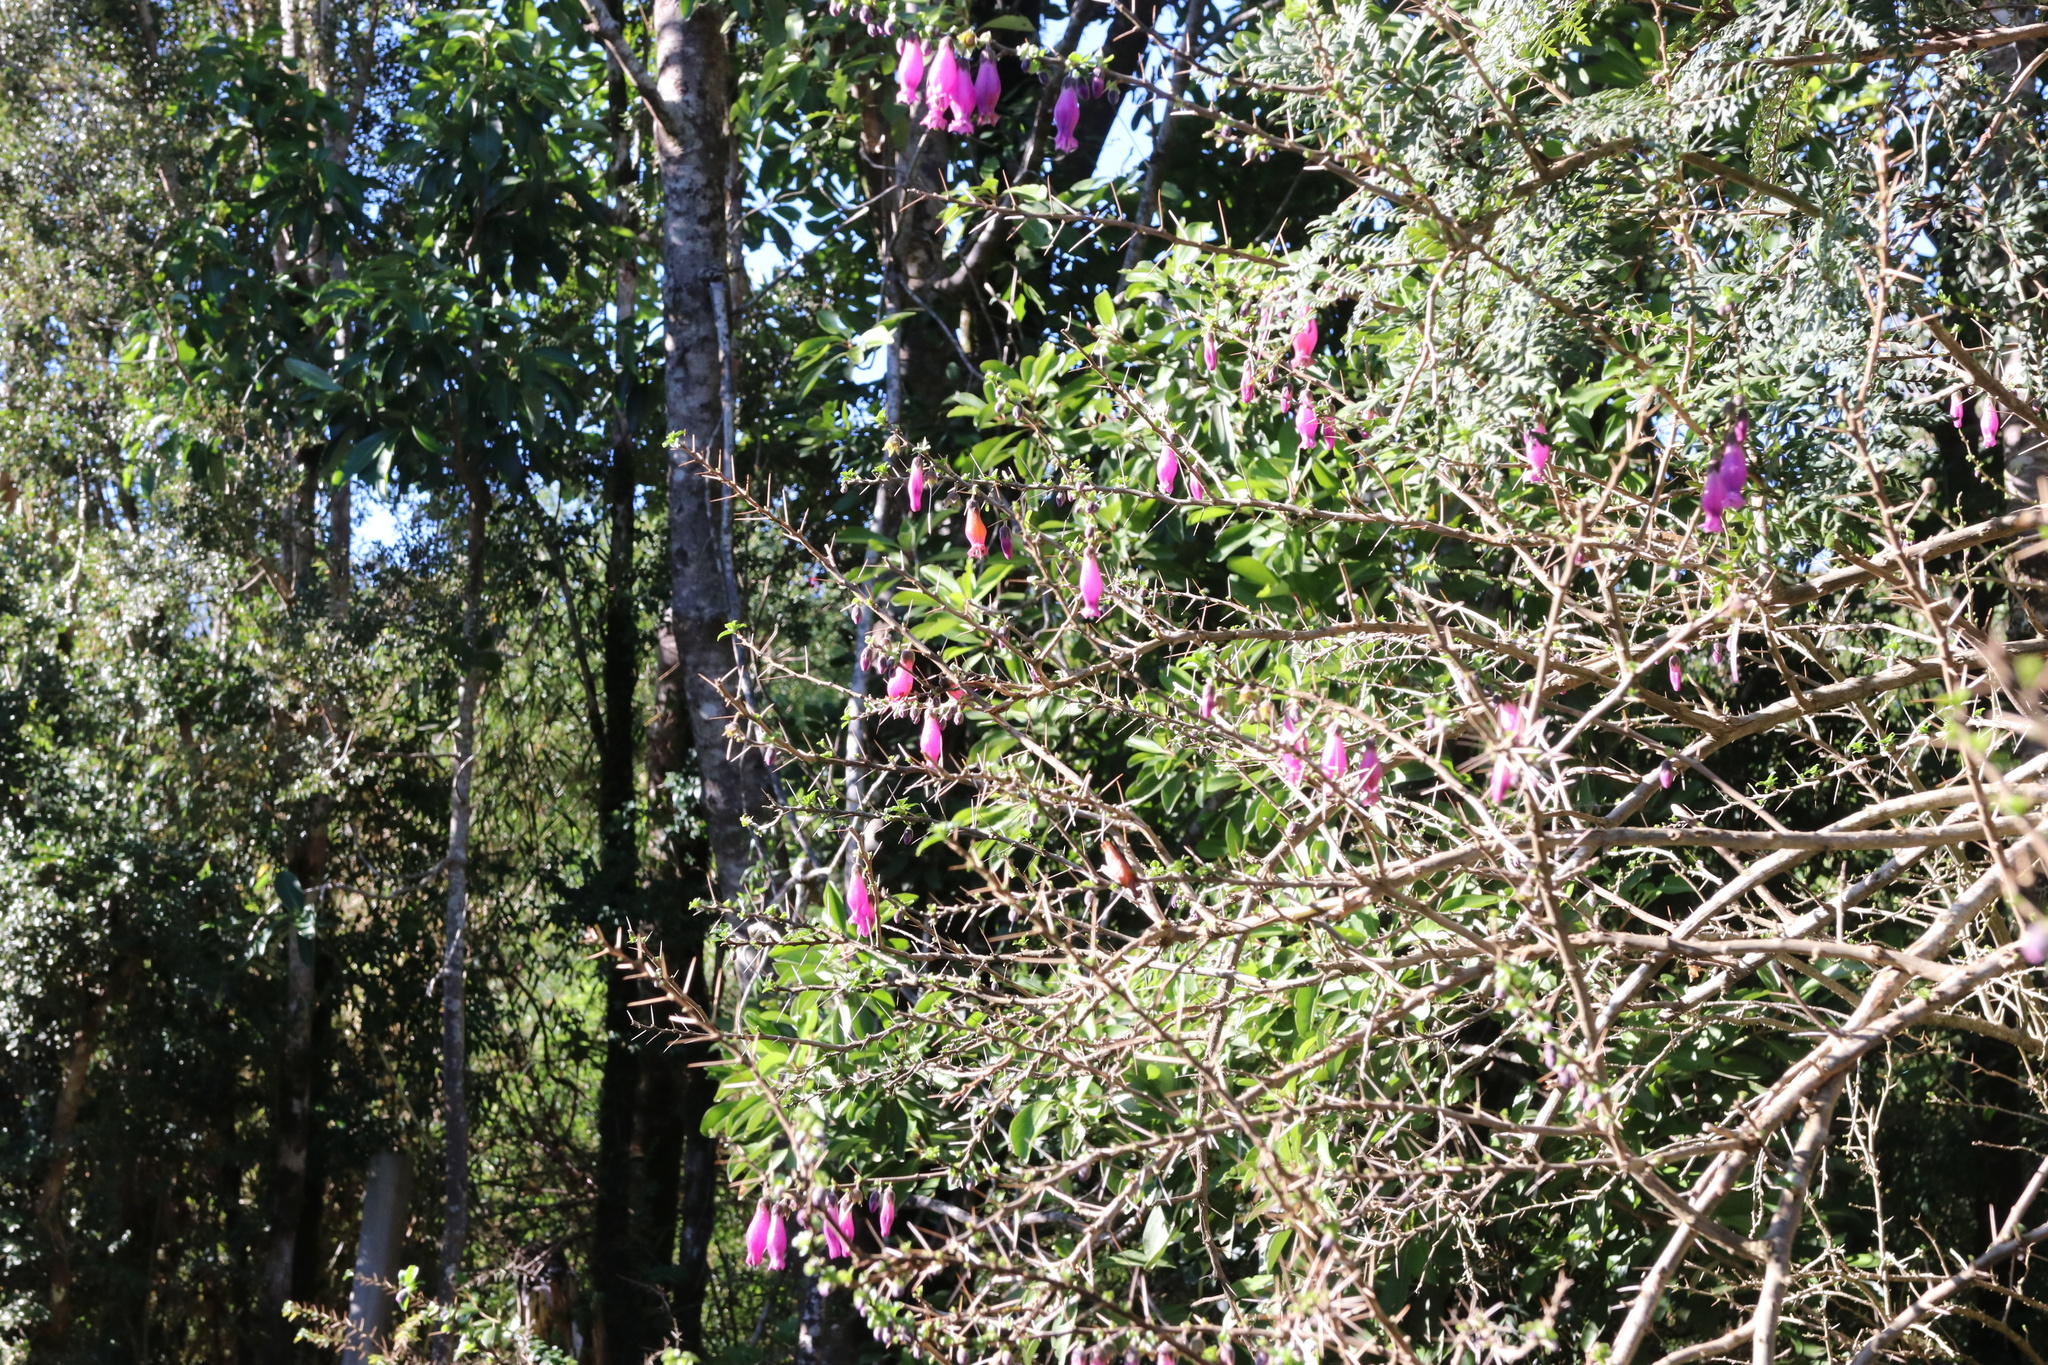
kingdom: Plantae
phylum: Tracheophyta
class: Magnoliopsida
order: Solanales
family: Solanaceae
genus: Latua
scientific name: Latua pubiflora
